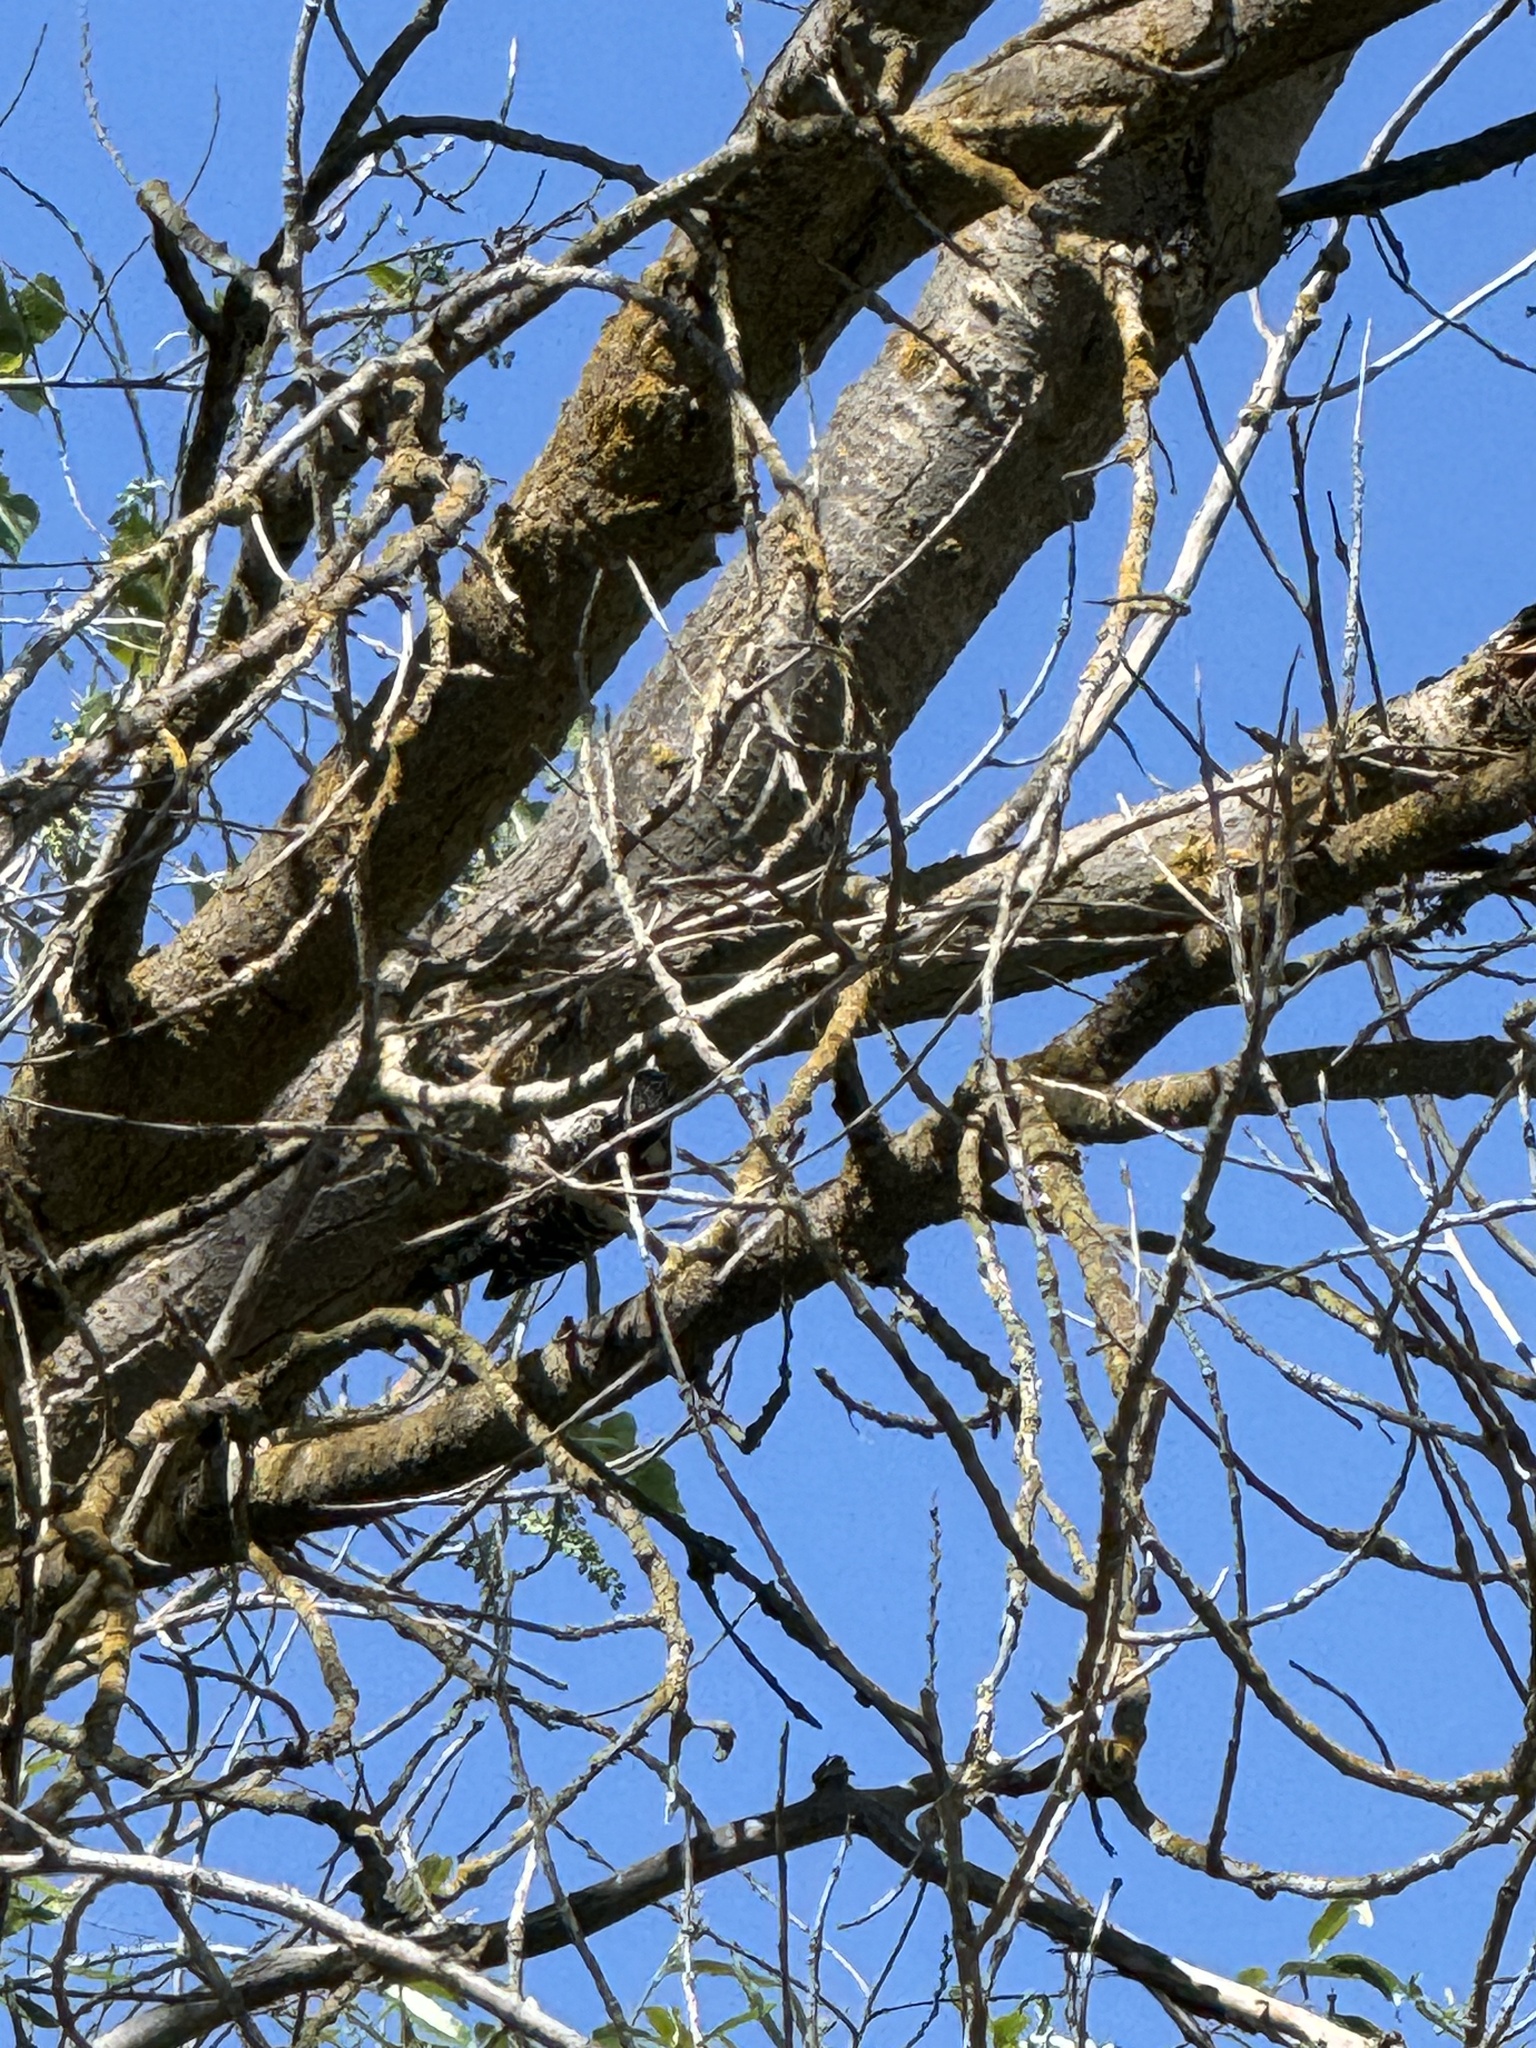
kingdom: Animalia
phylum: Chordata
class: Aves
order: Piciformes
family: Picidae
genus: Dryobates
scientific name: Dryobates nuttallii
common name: Nuttall's woodpecker
